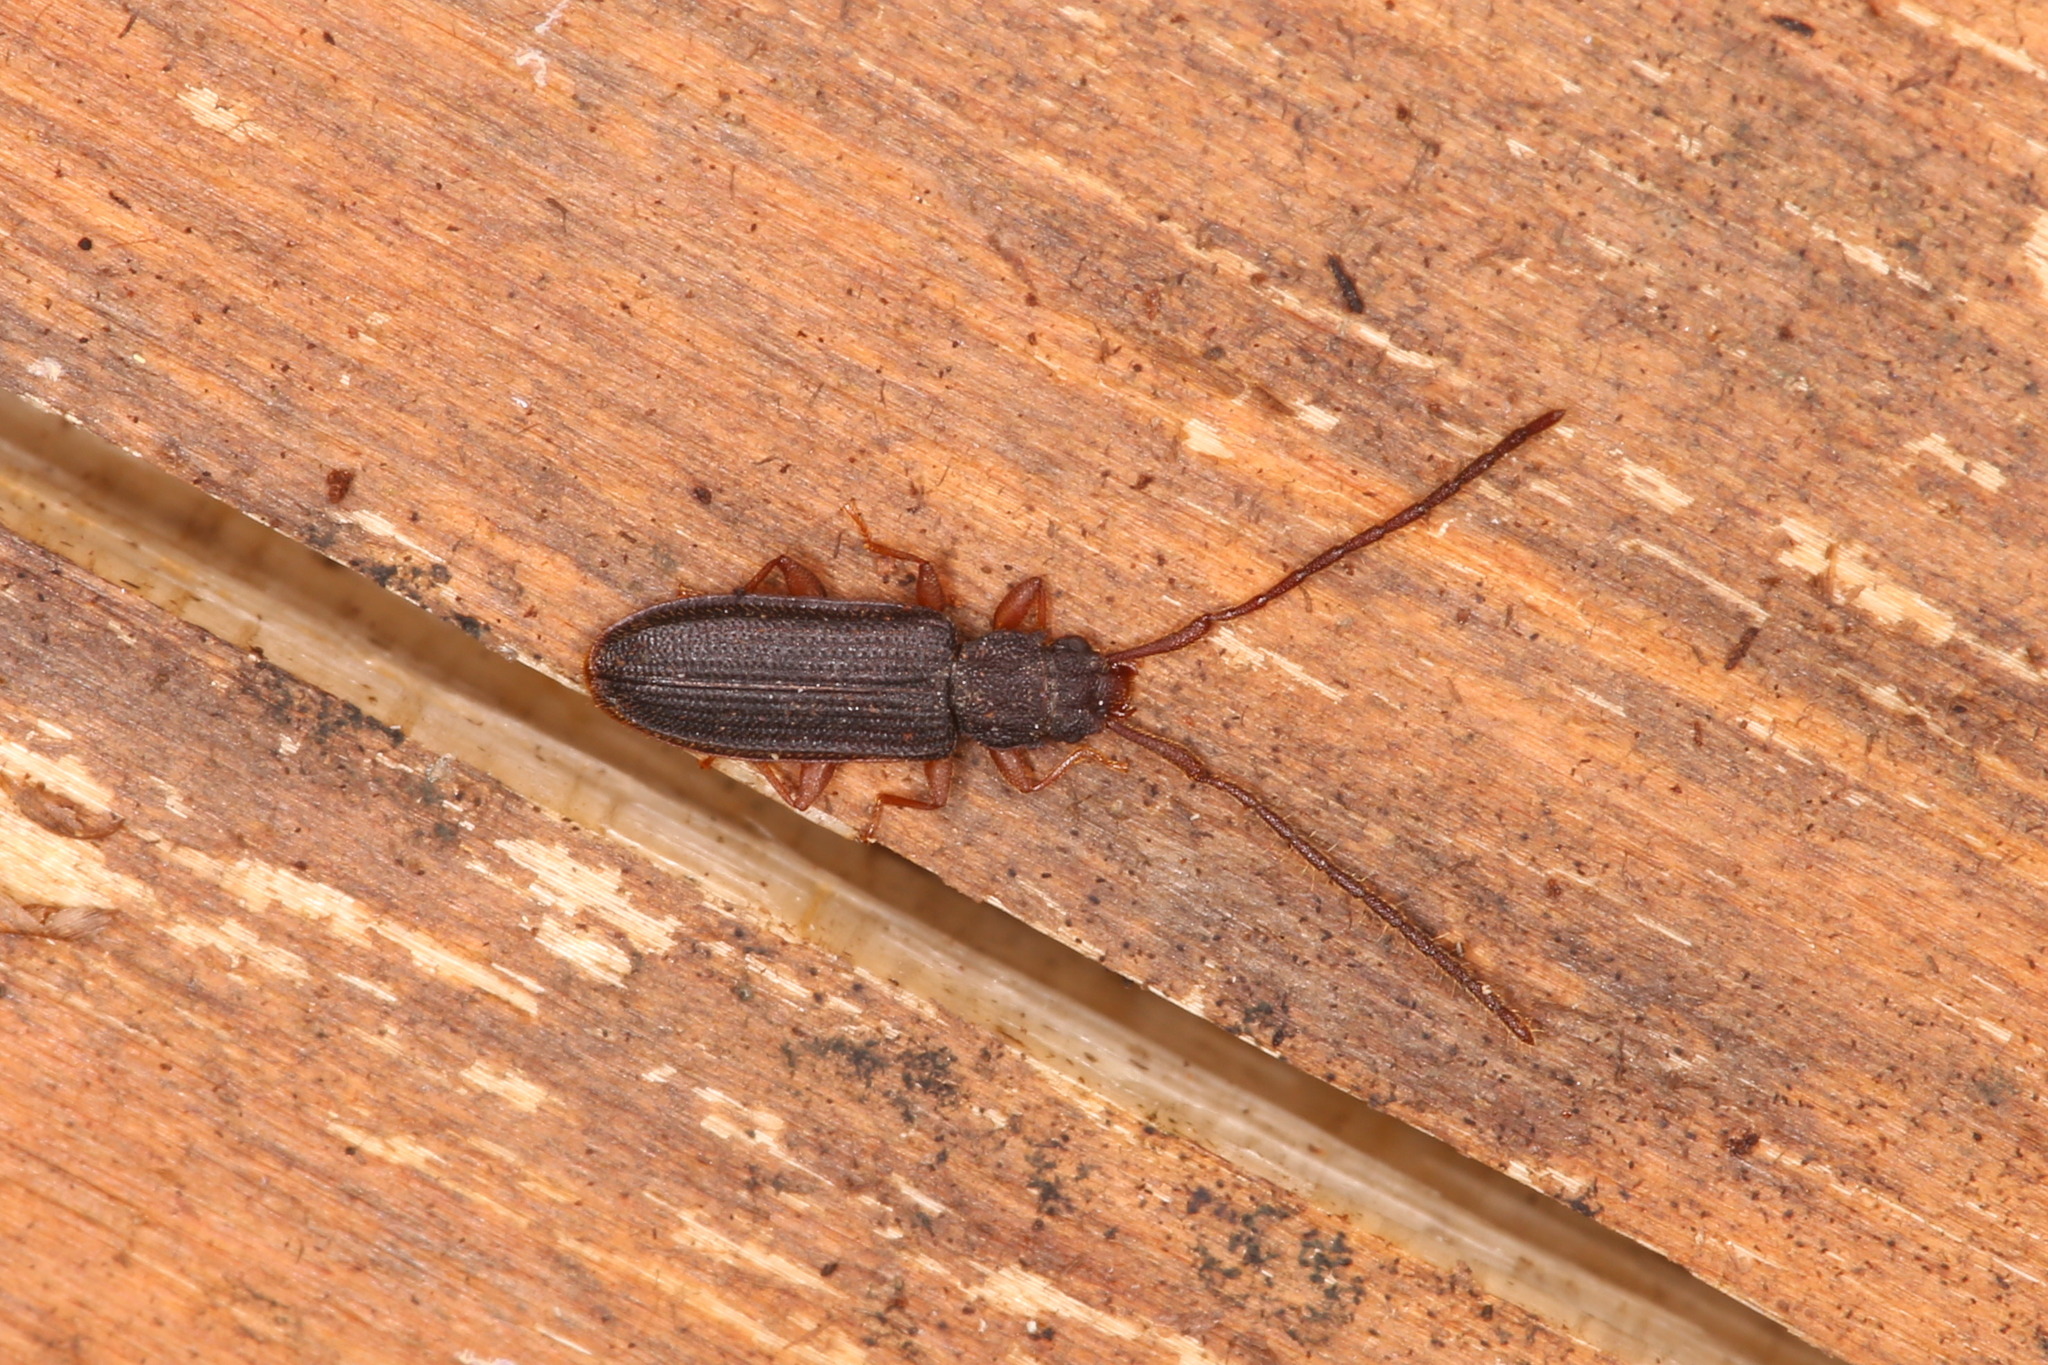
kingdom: Animalia
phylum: Arthropoda
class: Insecta
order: Coleoptera
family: Silvanidae
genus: Uleiota
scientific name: Uleiota planatus
